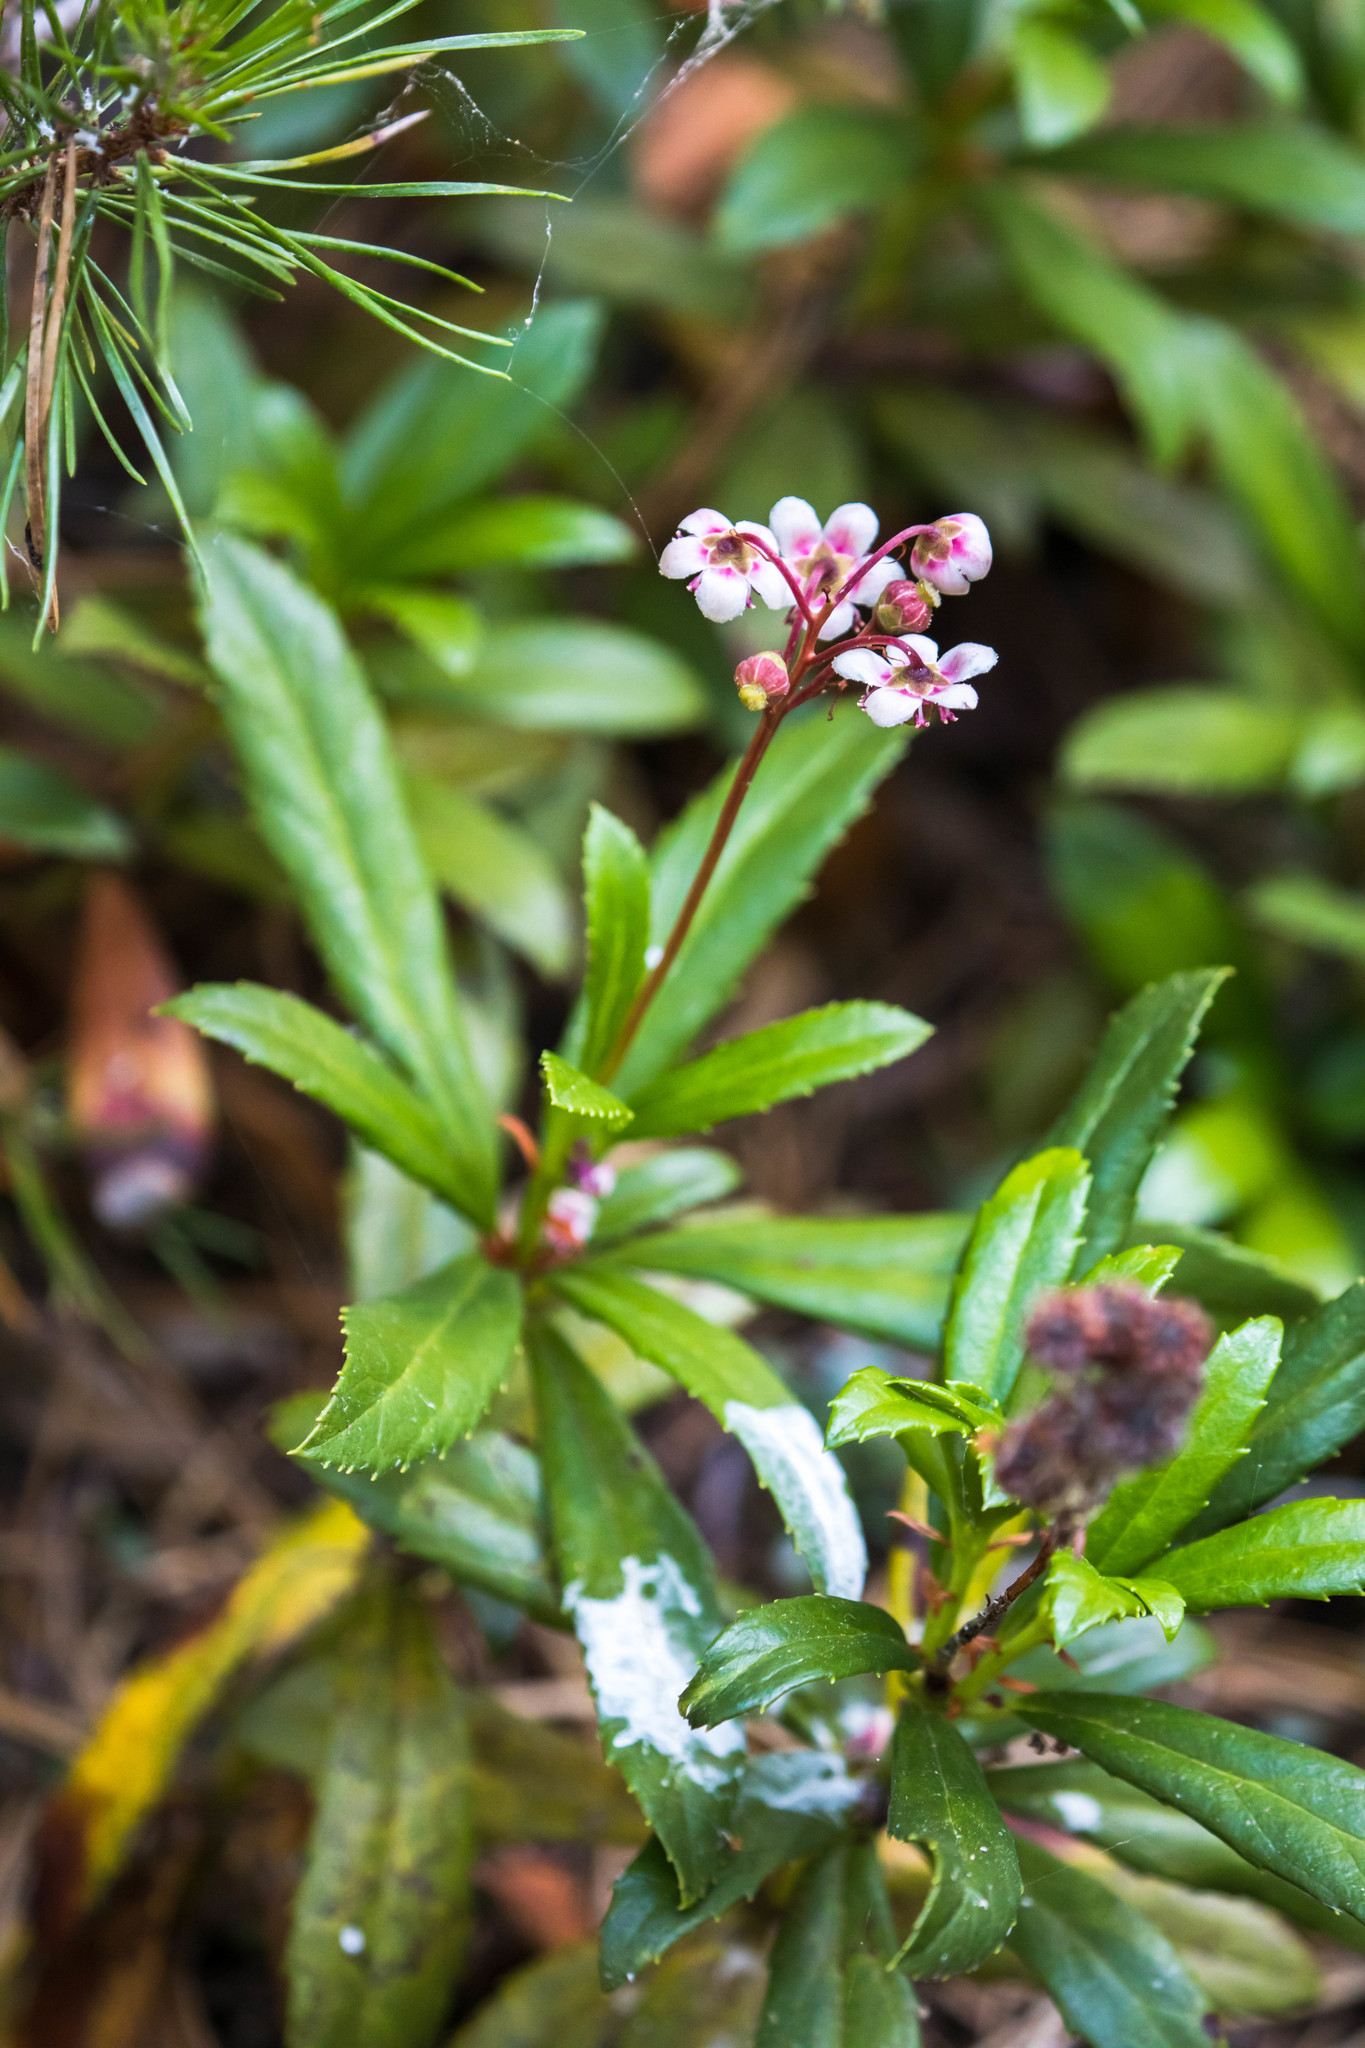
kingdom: Plantae
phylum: Tracheophyta
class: Magnoliopsida
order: Ericales
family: Ericaceae
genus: Chimaphila
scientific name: Chimaphila umbellata
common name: Pipsissewa
